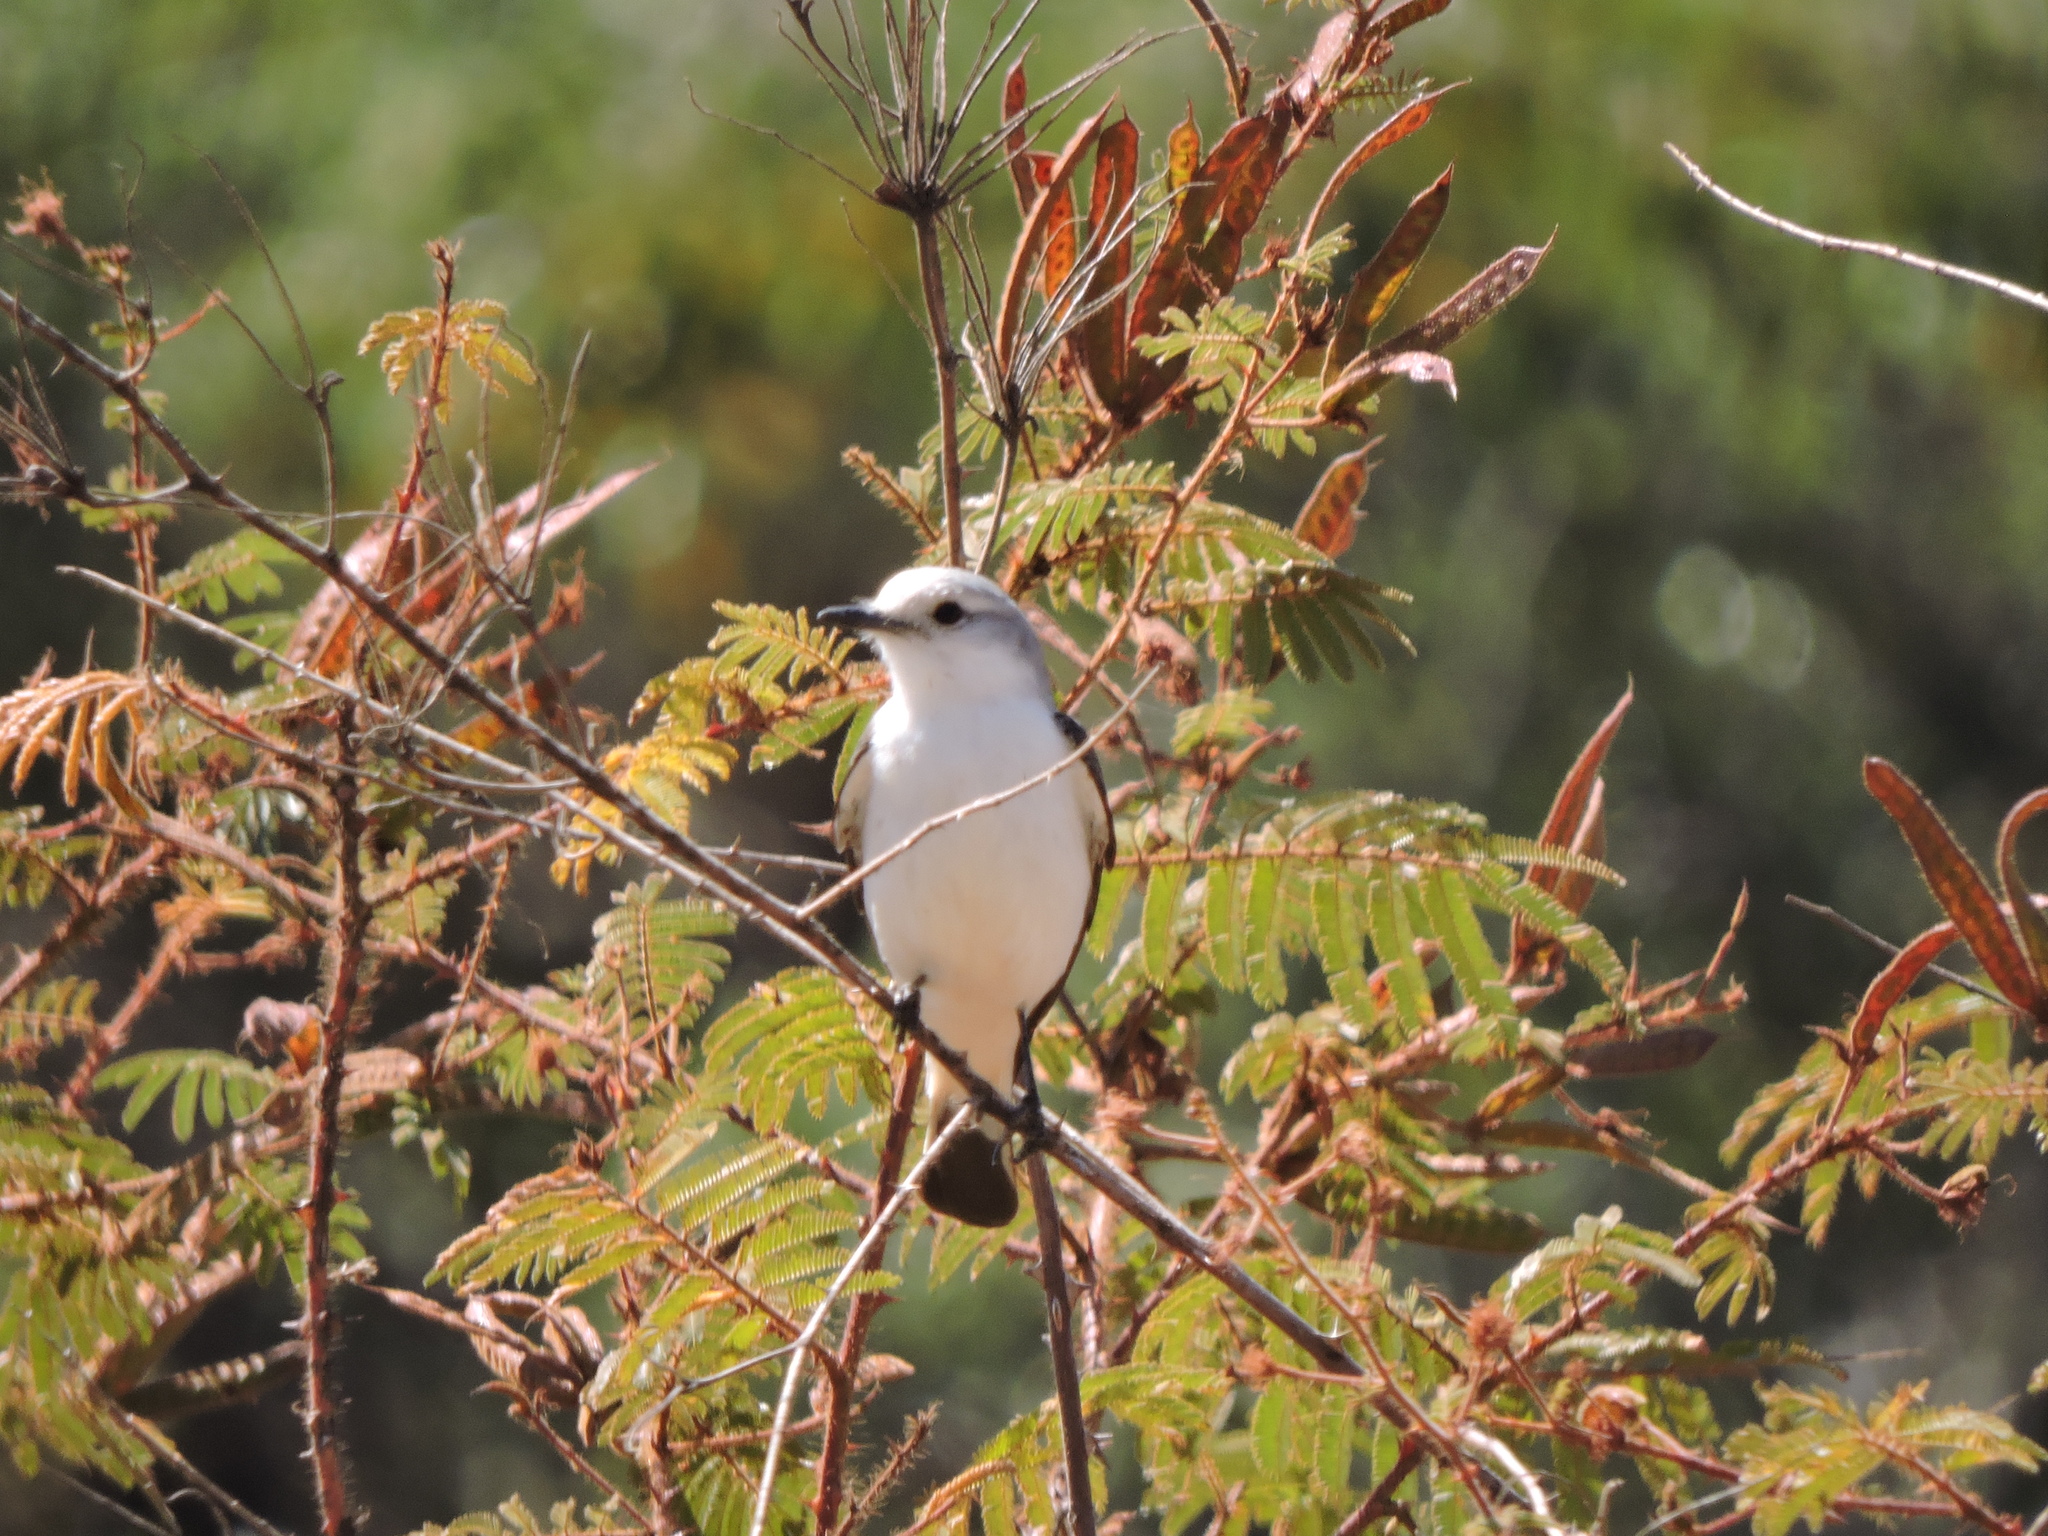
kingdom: Animalia
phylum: Chordata
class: Aves
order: Passeriformes
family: Tyrannidae
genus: Xolmis
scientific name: Xolmis velatus
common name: White-rumped monjita
